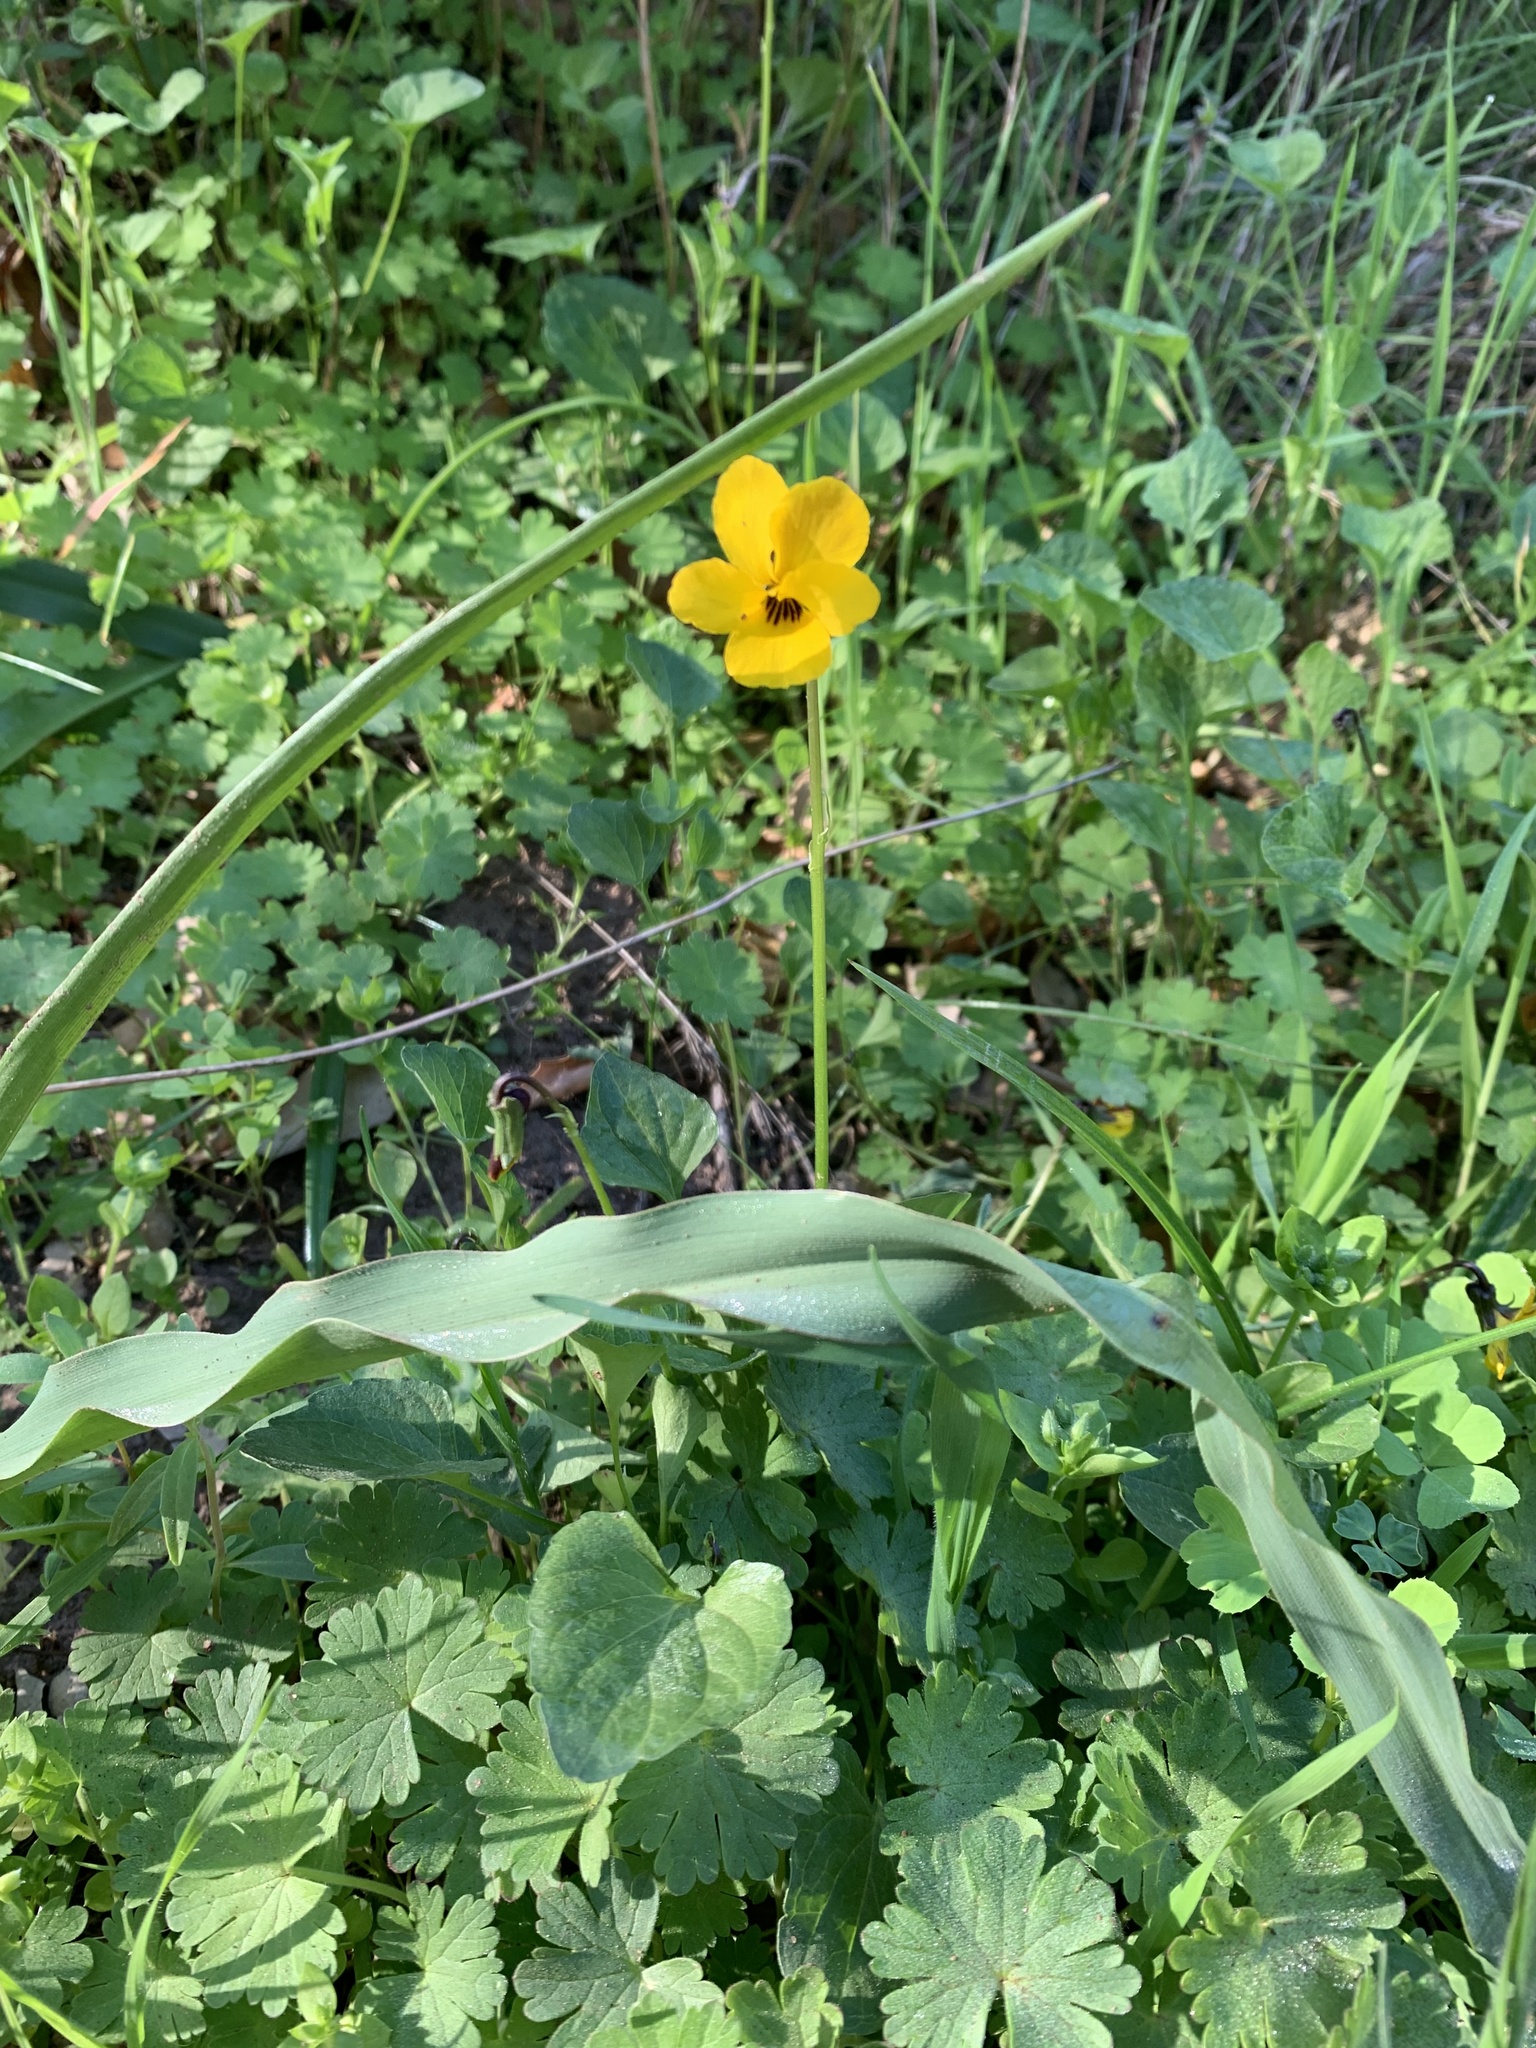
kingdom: Plantae
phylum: Tracheophyta
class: Magnoliopsida
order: Malpighiales
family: Violaceae
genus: Viola
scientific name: Viola pedunculata
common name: California golden violet
